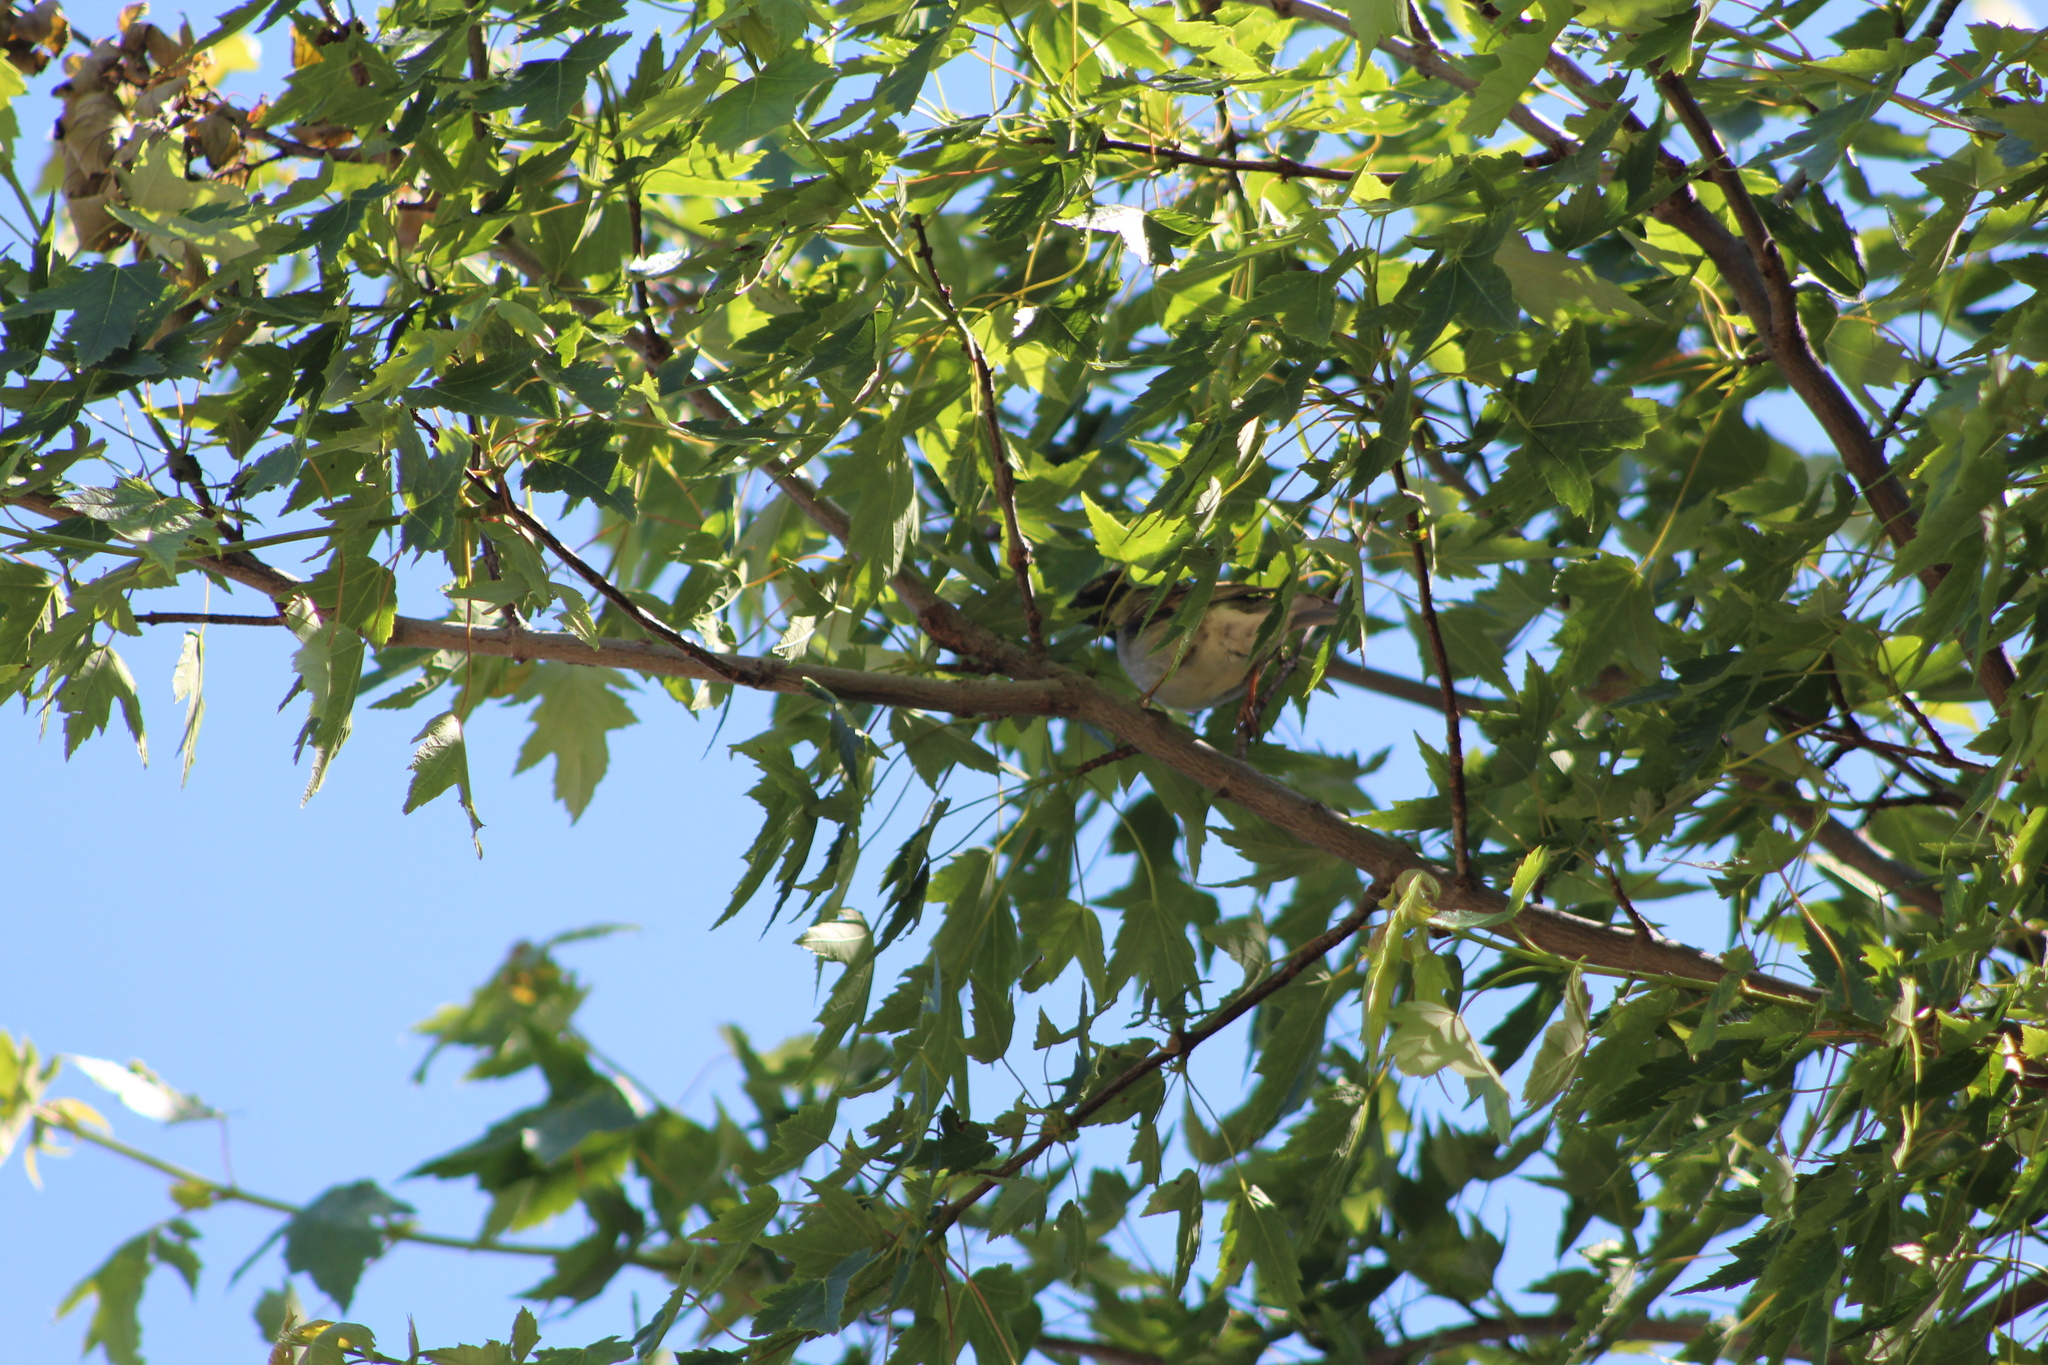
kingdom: Animalia
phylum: Chordata
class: Aves
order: Passeriformes
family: Passeridae
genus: Passer
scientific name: Passer domesticus
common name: House sparrow
